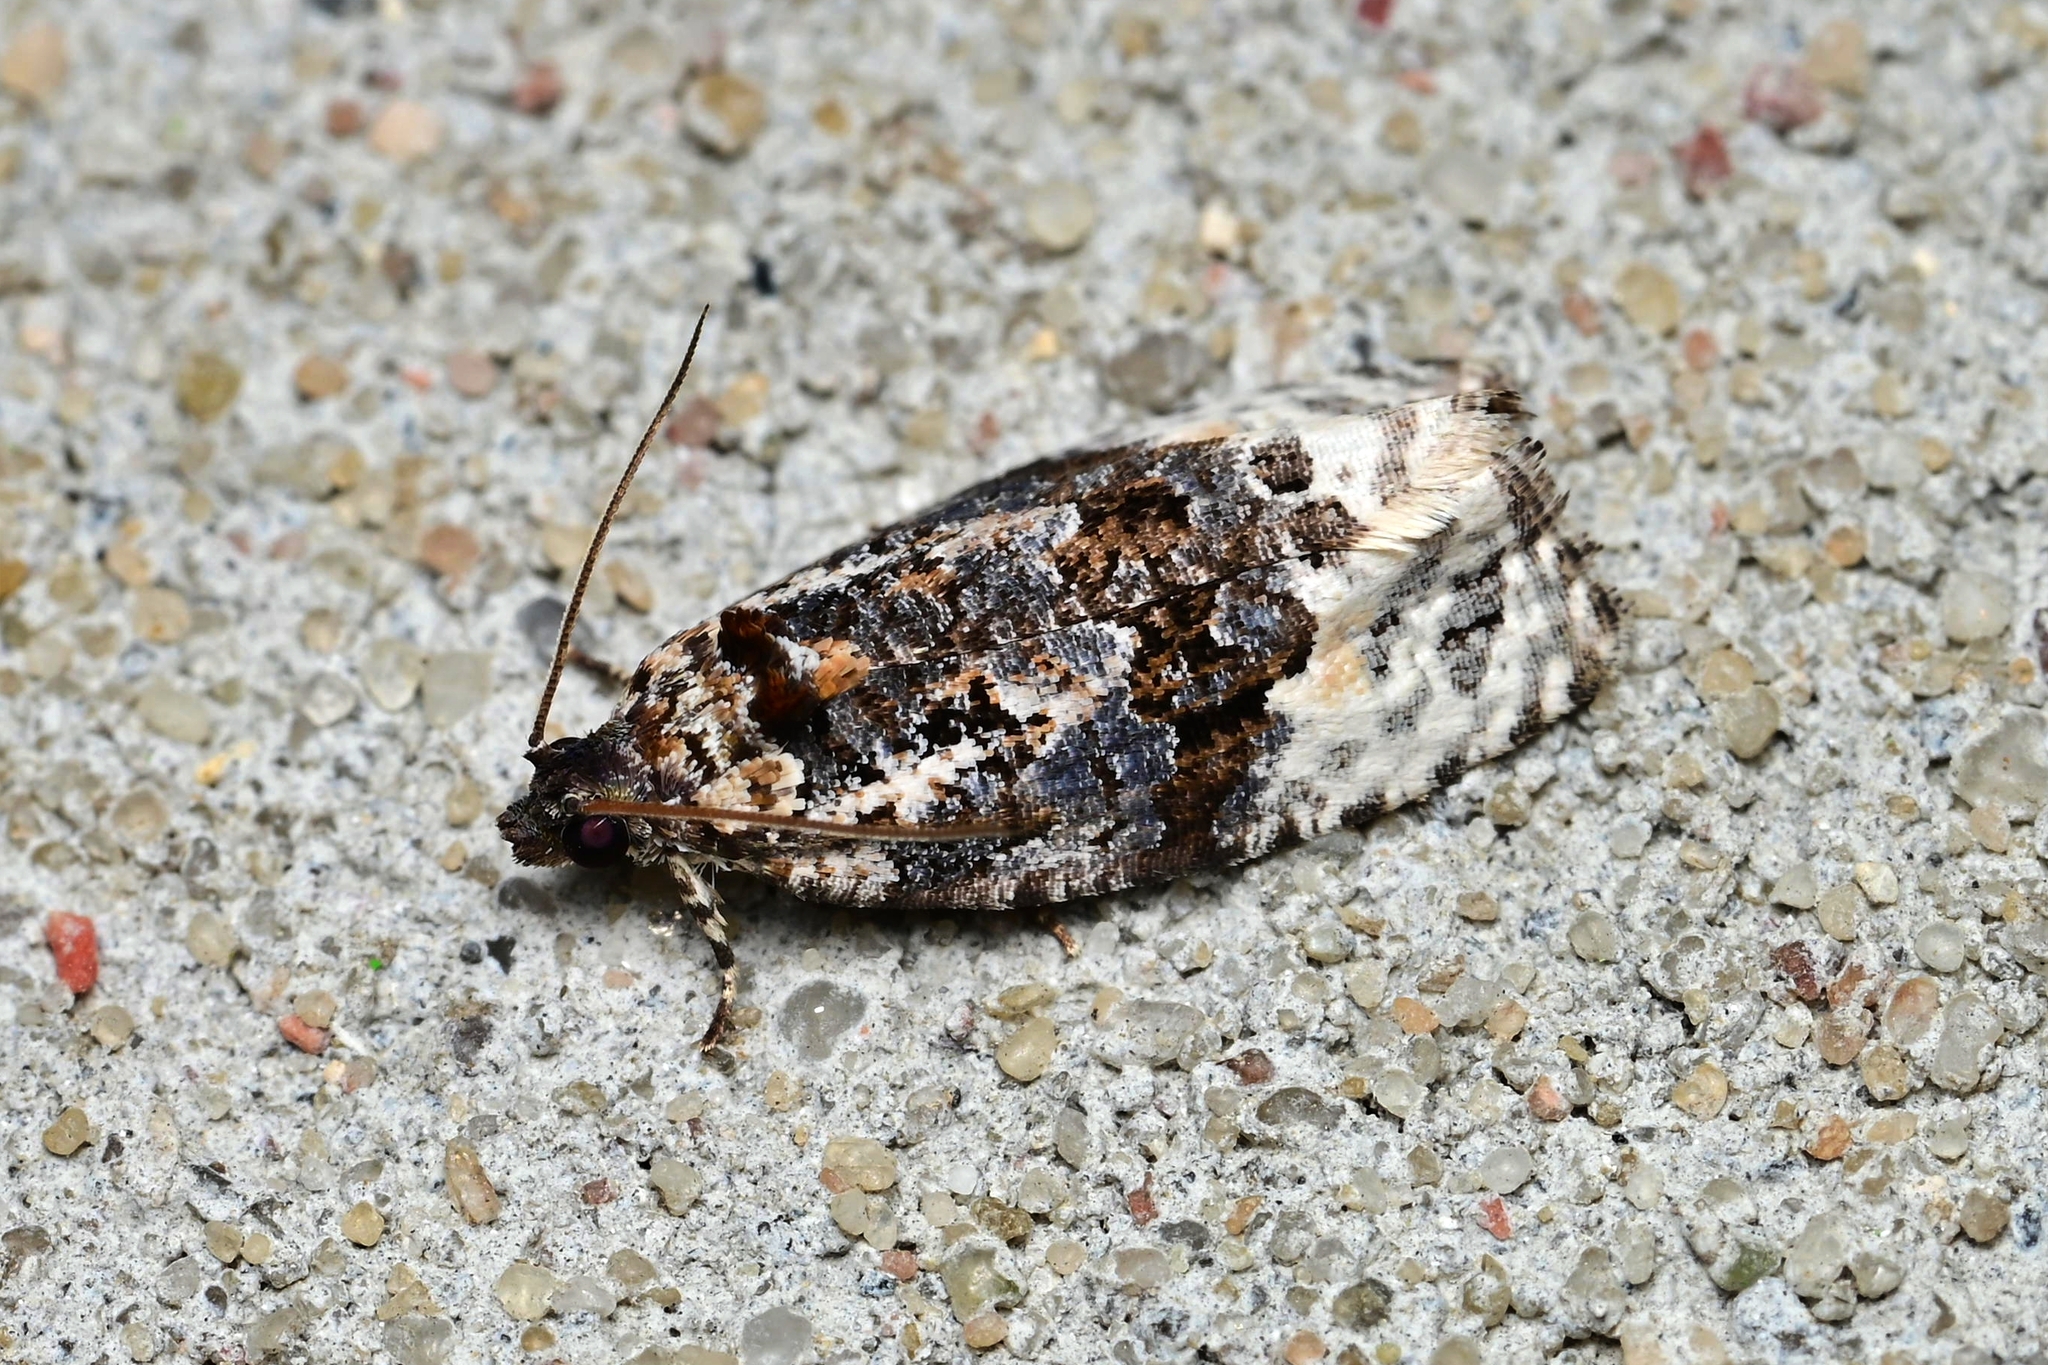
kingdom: Animalia
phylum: Arthropoda
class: Insecta
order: Lepidoptera
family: Tortricidae
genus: Apotomis
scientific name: Apotomis betuletana
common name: Birch marble
